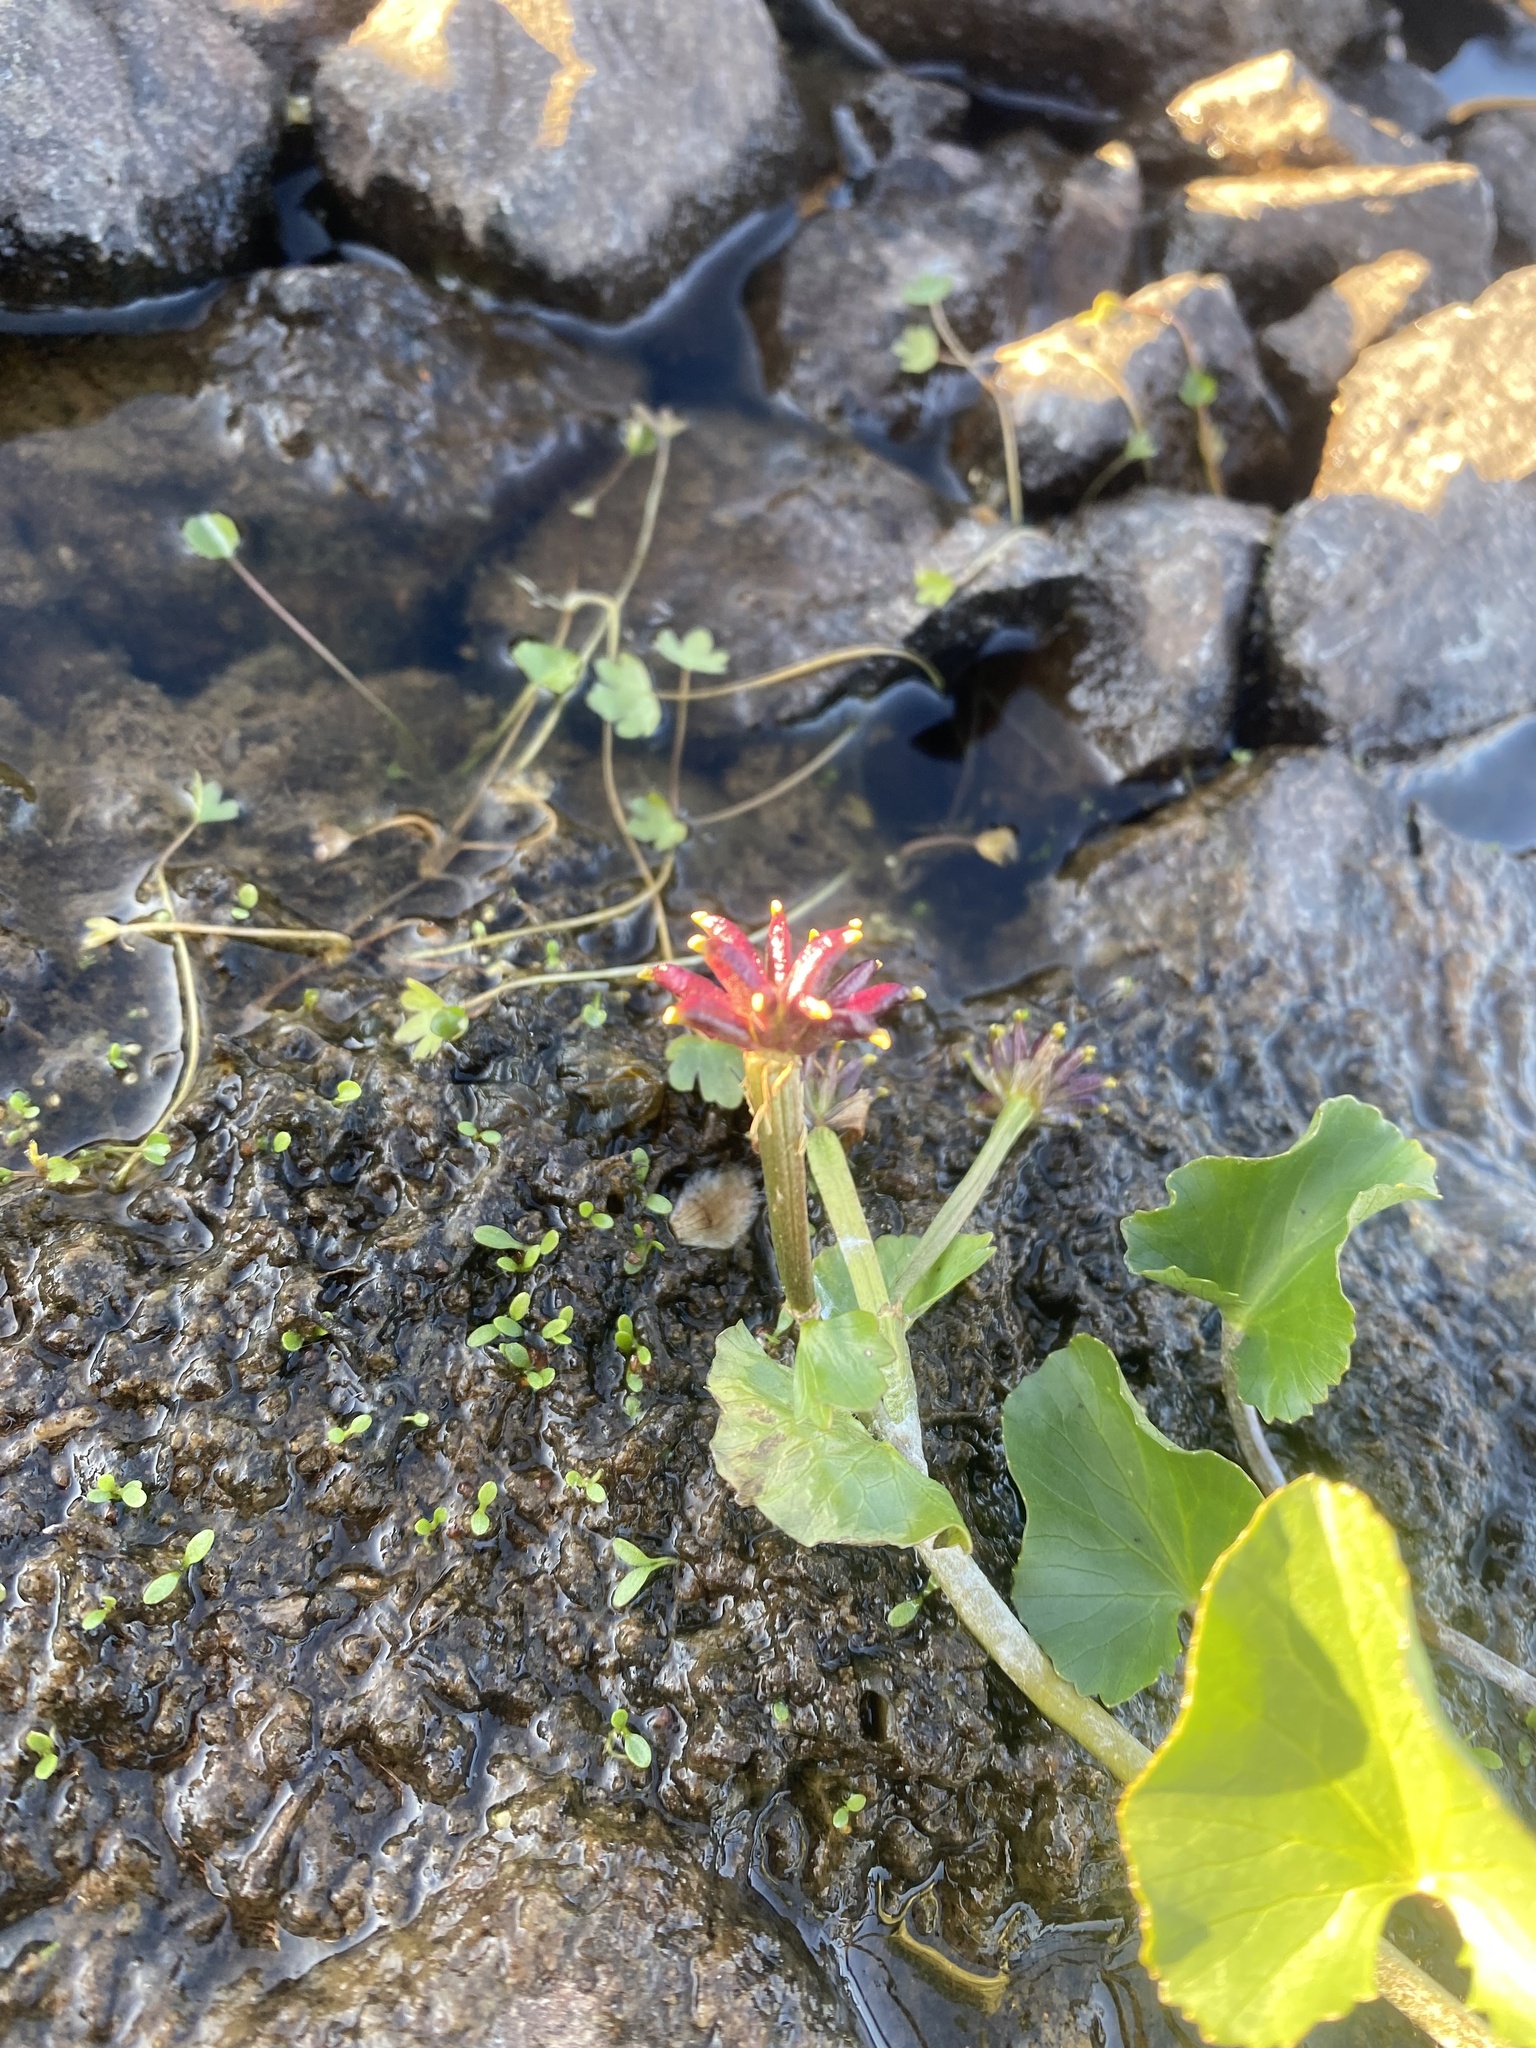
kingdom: Plantae
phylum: Tracheophyta
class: Magnoliopsida
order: Ranunculales
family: Ranunculaceae
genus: Caltha
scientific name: Caltha palustris
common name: Marsh marigold
